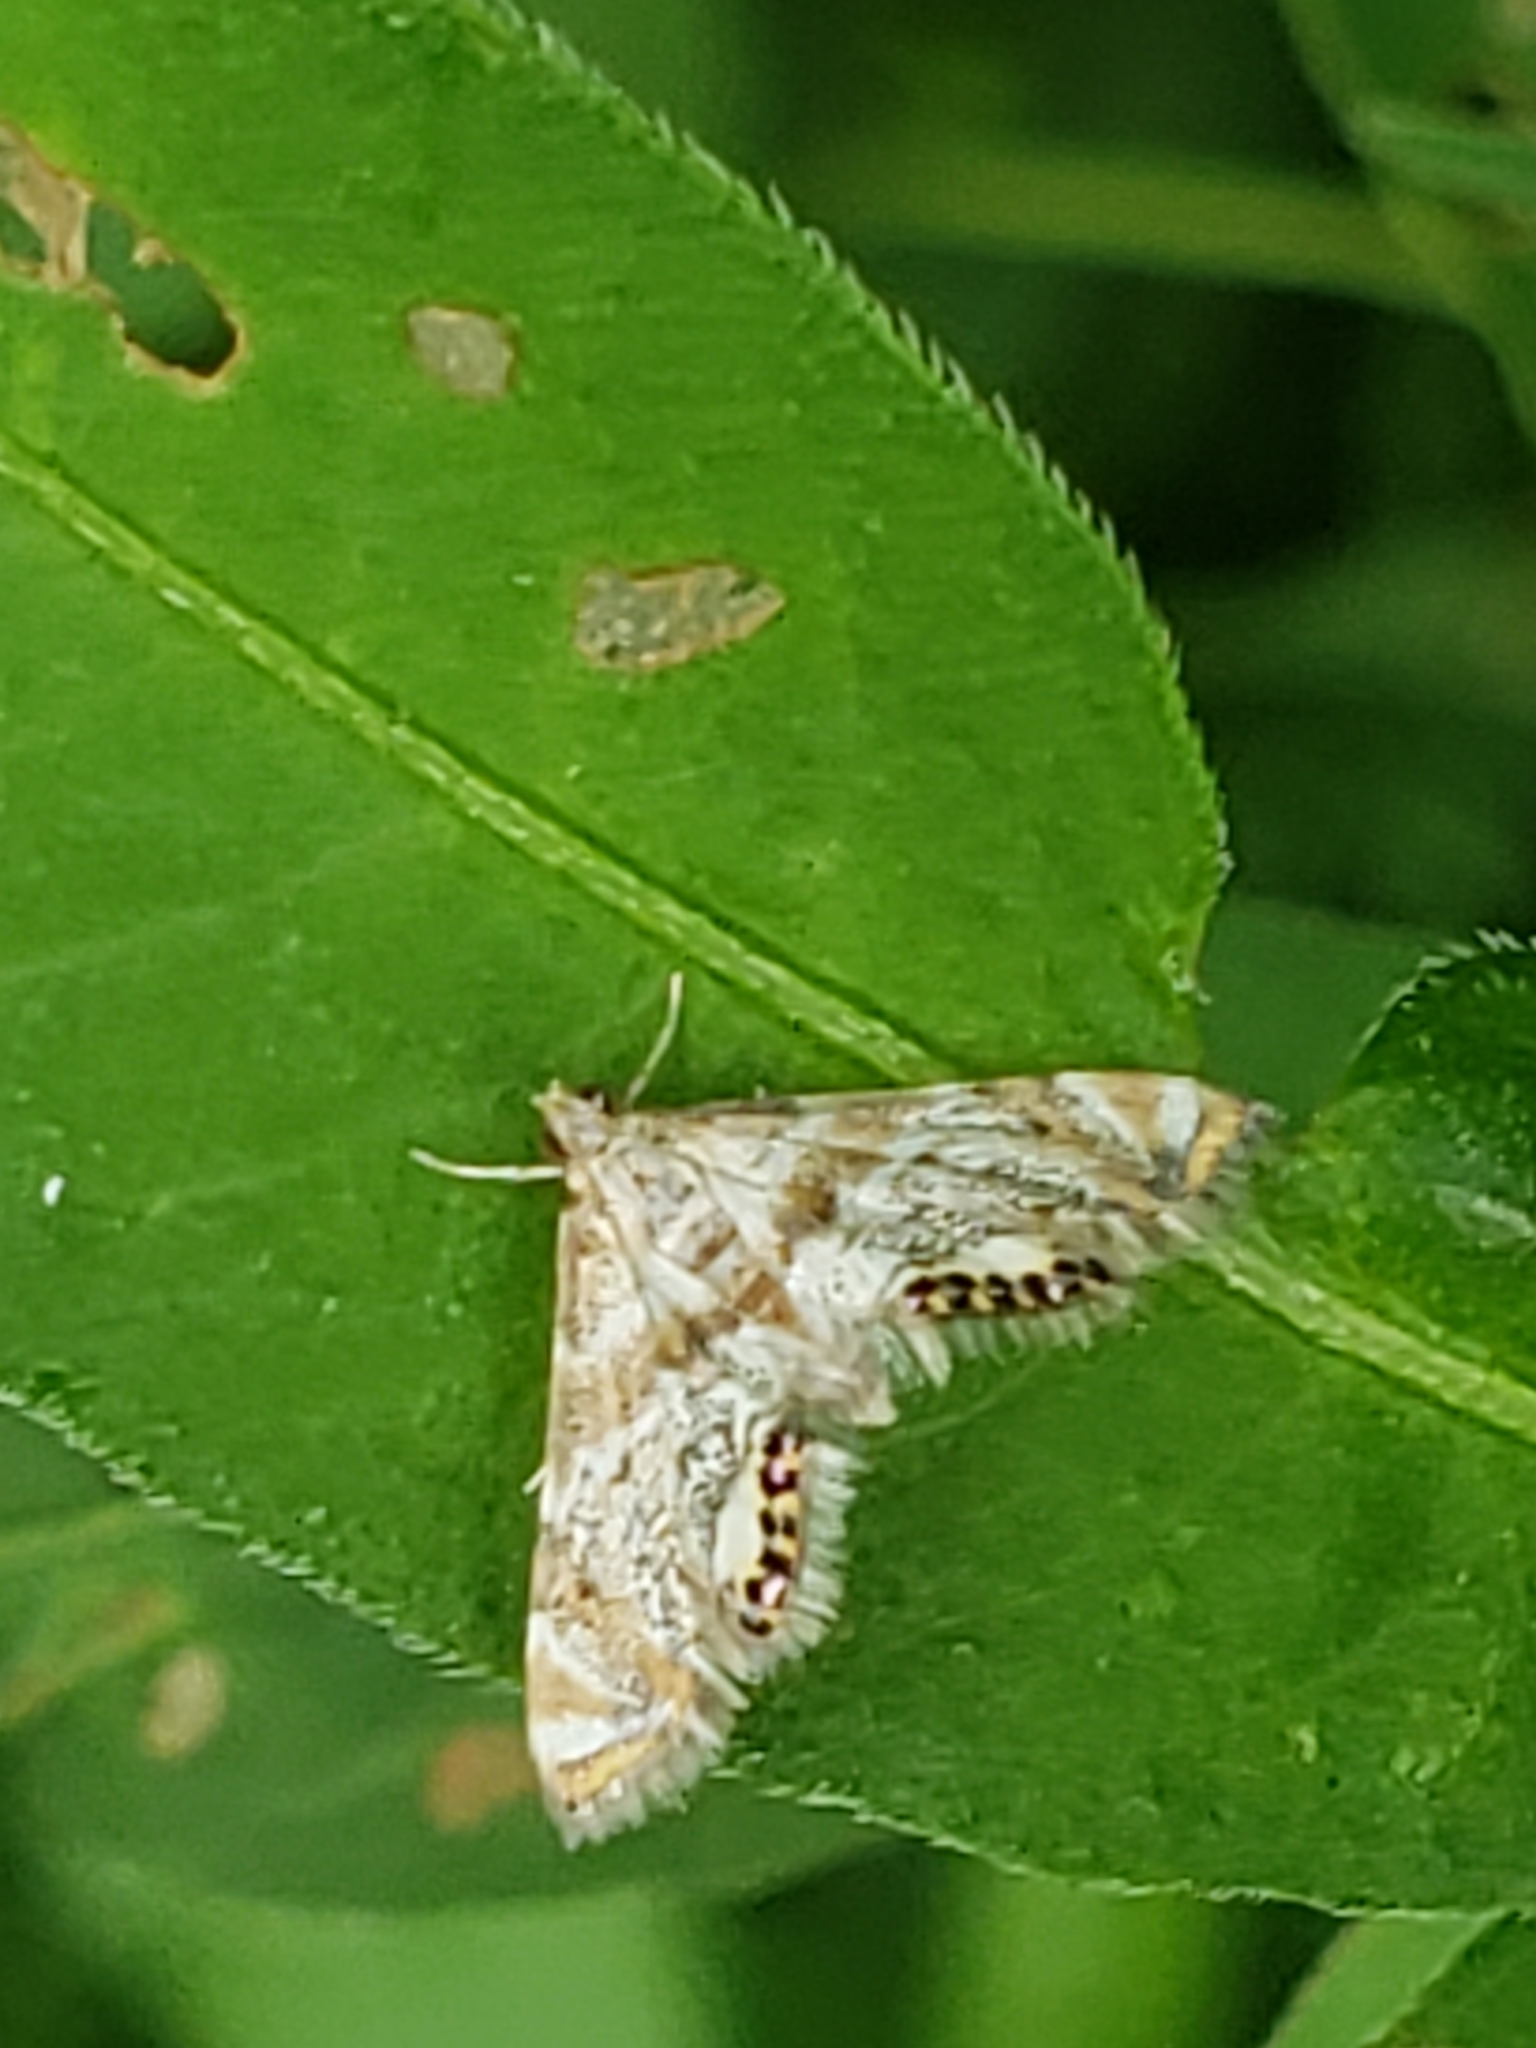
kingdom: Animalia
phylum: Arthropoda
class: Insecta
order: Lepidoptera
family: Crambidae
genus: Petrophila
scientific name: Petrophila fulicalis
